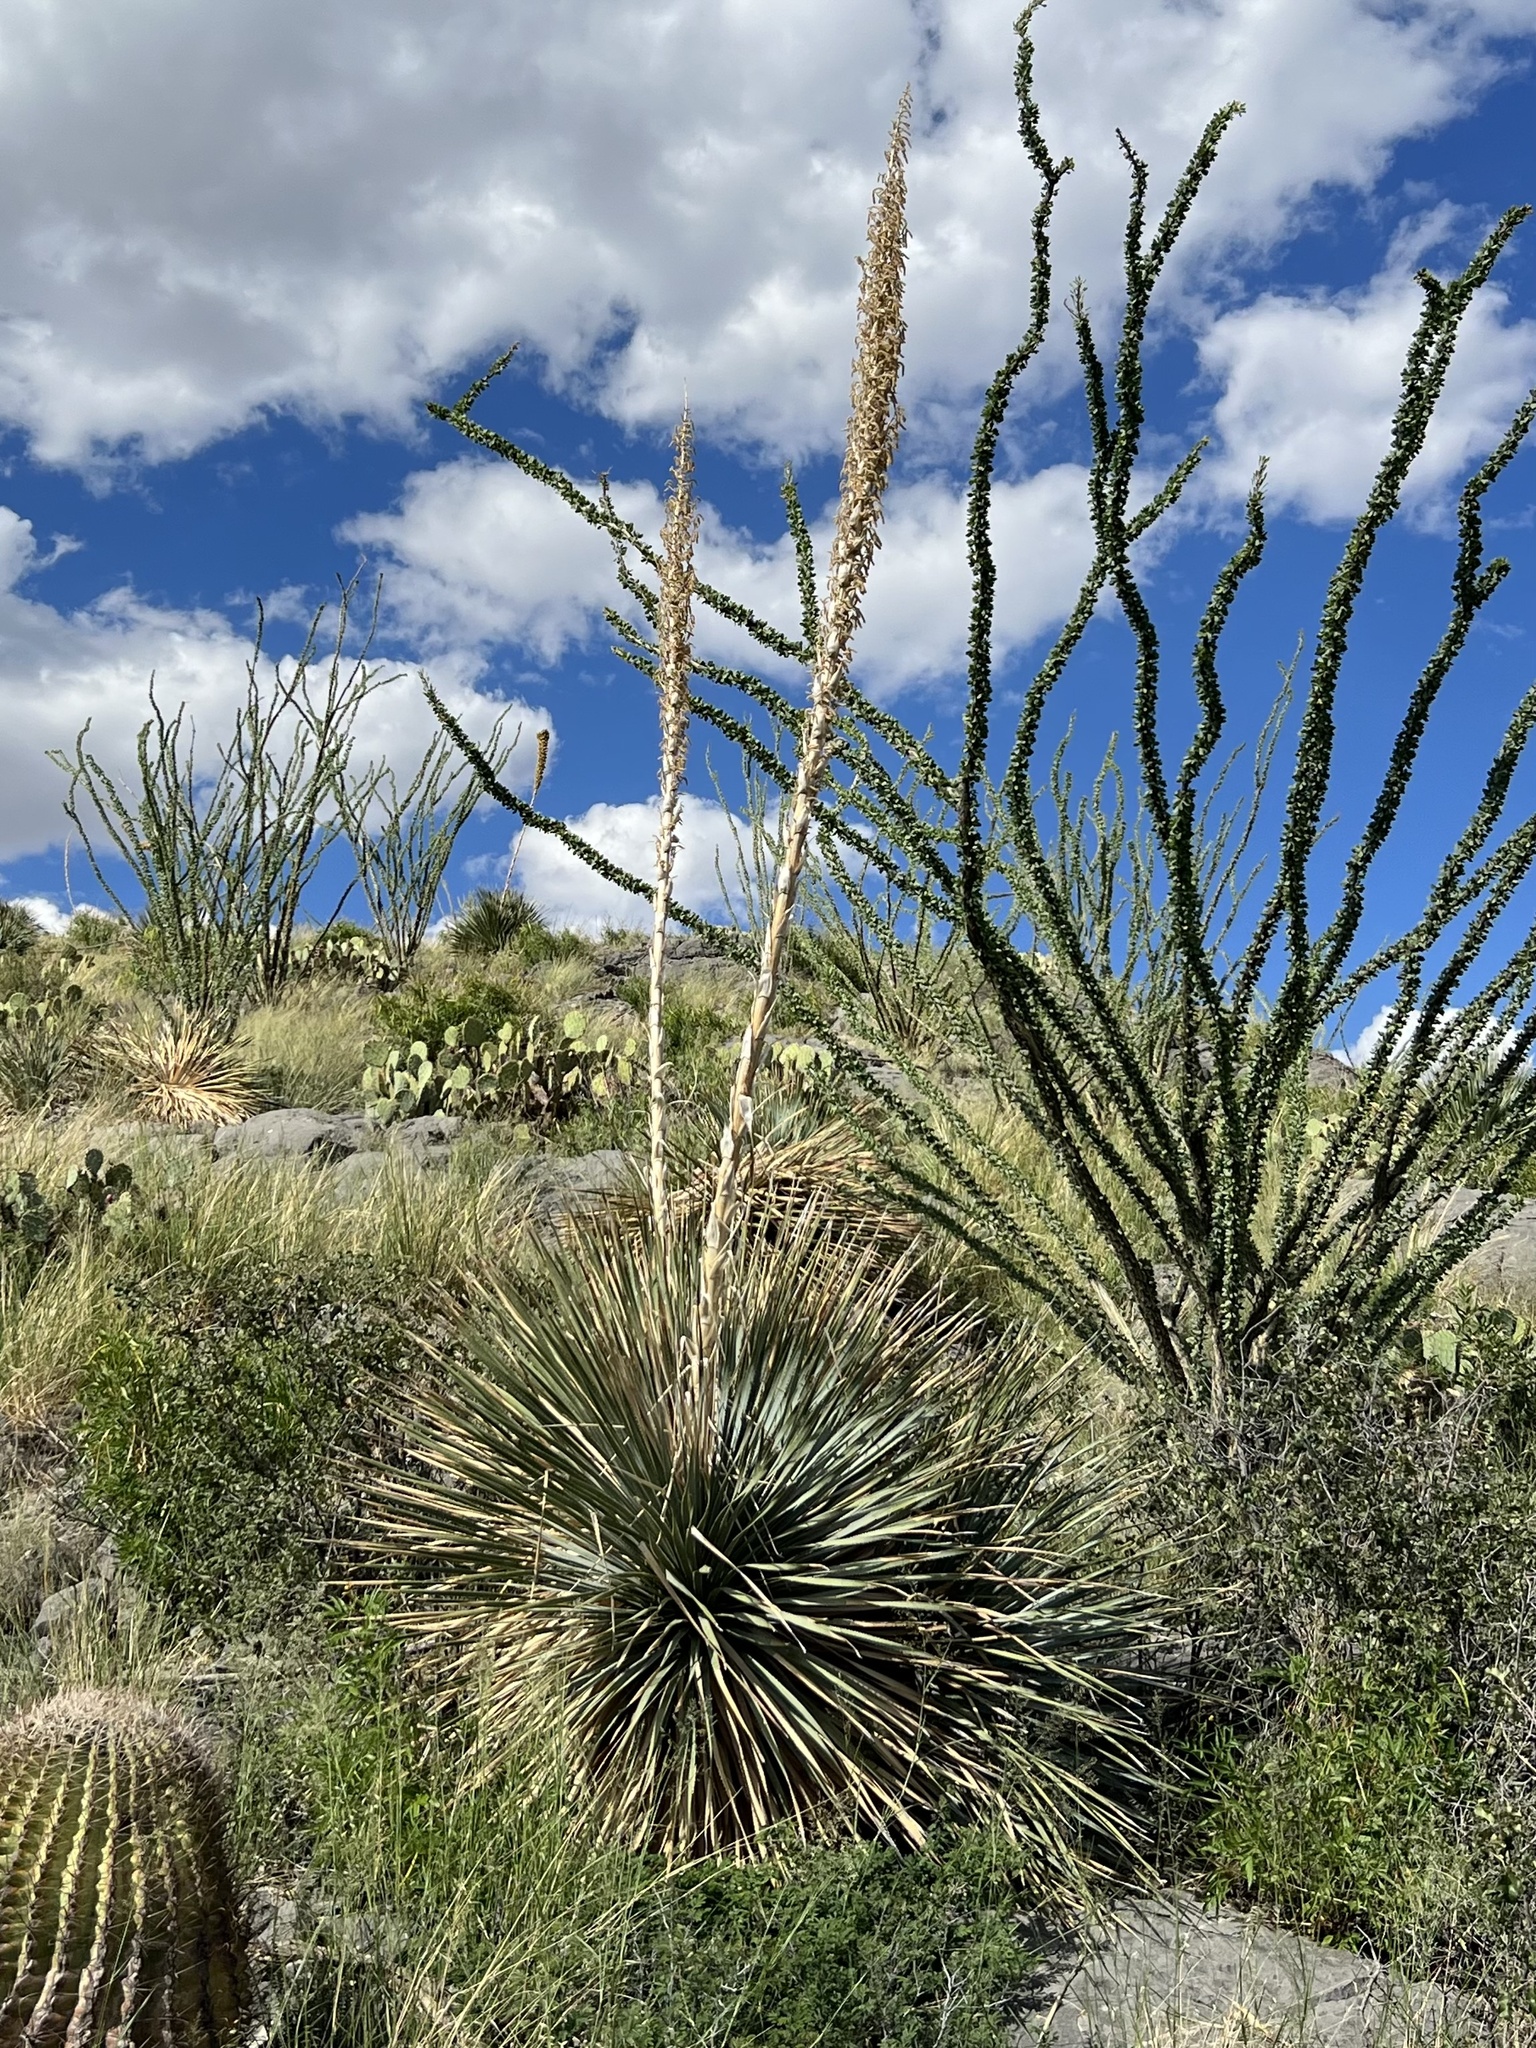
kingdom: Plantae
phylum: Tracheophyta
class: Liliopsida
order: Asparagales
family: Asparagaceae
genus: Dasylirion
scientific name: Dasylirion wheeleri
